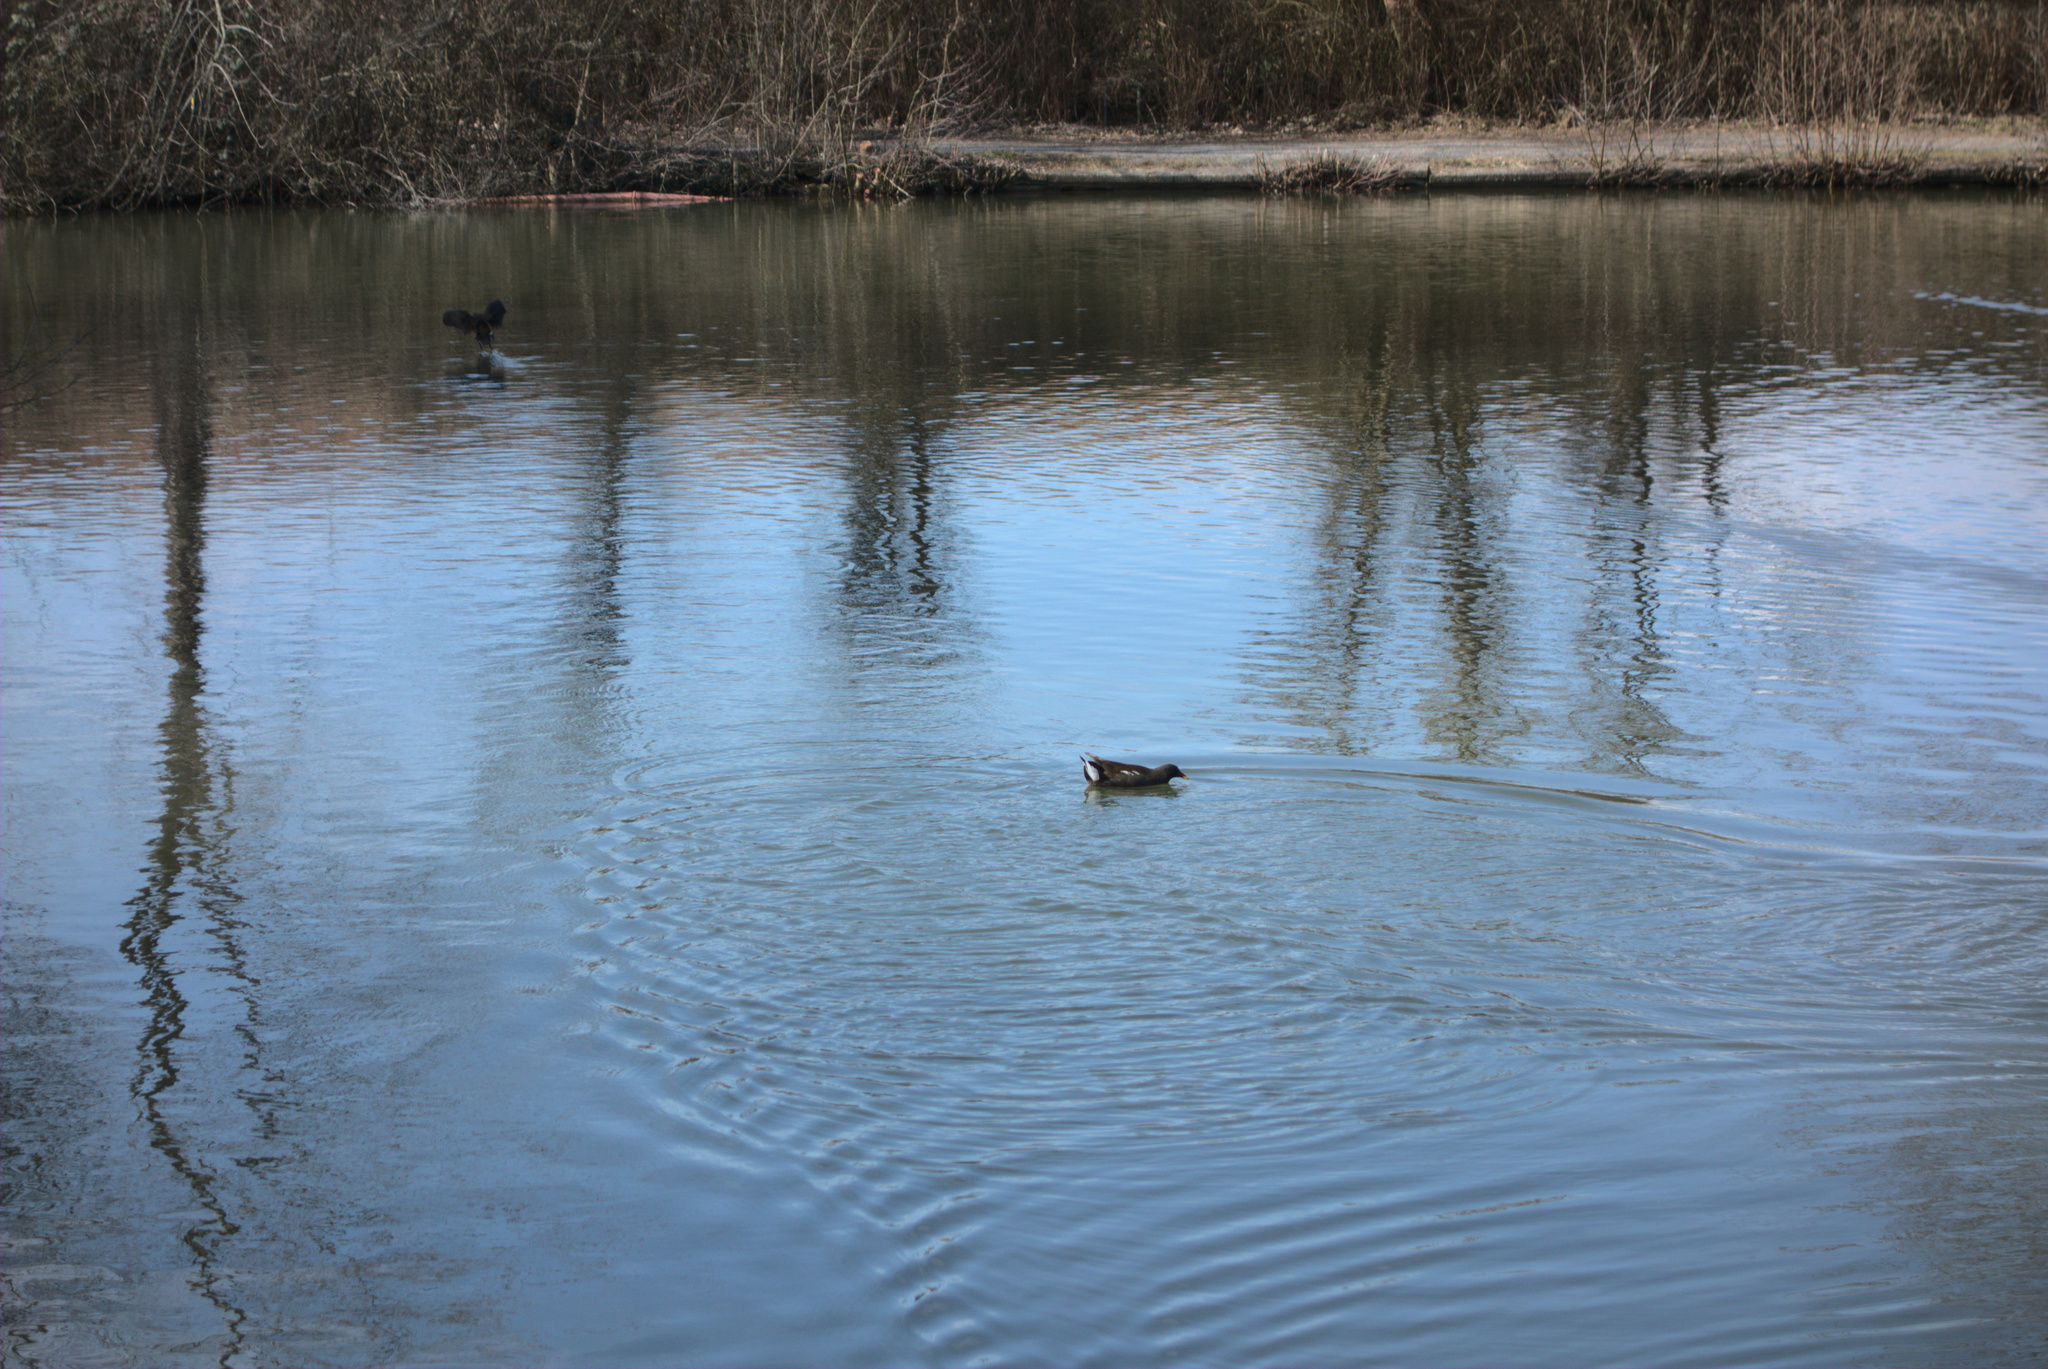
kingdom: Animalia
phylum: Chordata
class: Aves
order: Gruiformes
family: Rallidae
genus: Gallinula
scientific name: Gallinula chloropus
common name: Common moorhen
